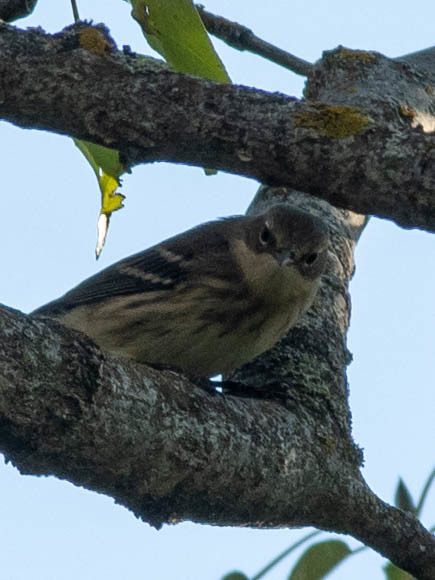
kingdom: Animalia
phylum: Chordata
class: Aves
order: Passeriformes
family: Parulidae
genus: Setophaga
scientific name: Setophaga coronata
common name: Myrtle warbler
